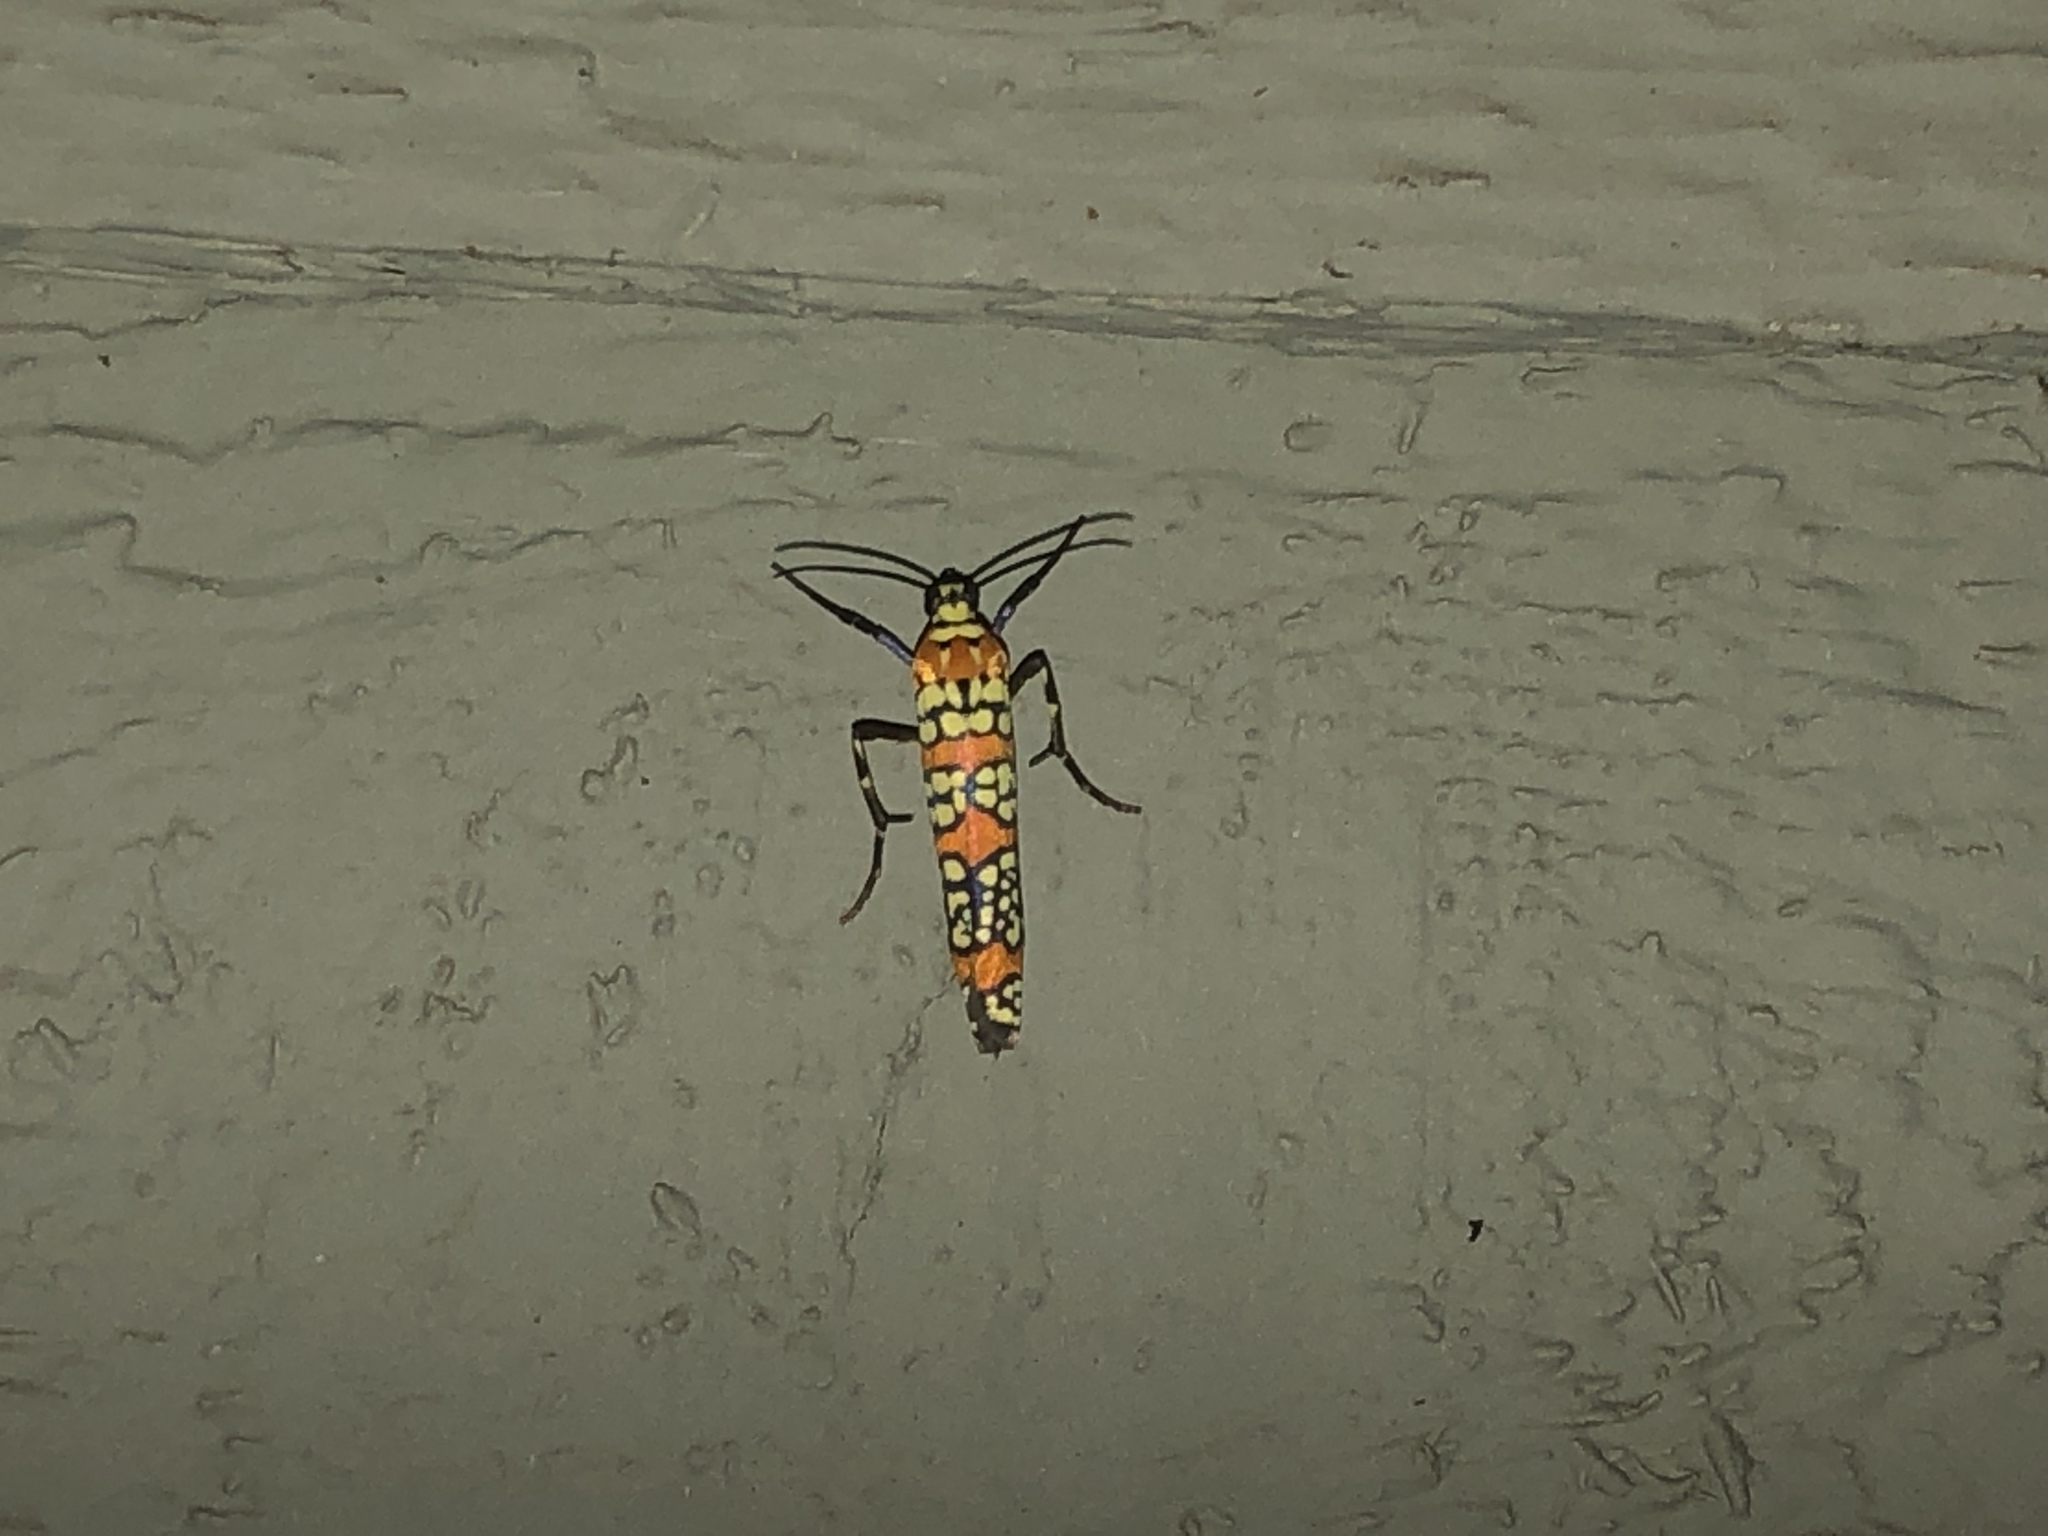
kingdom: Animalia
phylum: Arthropoda
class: Insecta
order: Lepidoptera
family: Attevidae
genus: Atteva
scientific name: Atteva punctella
